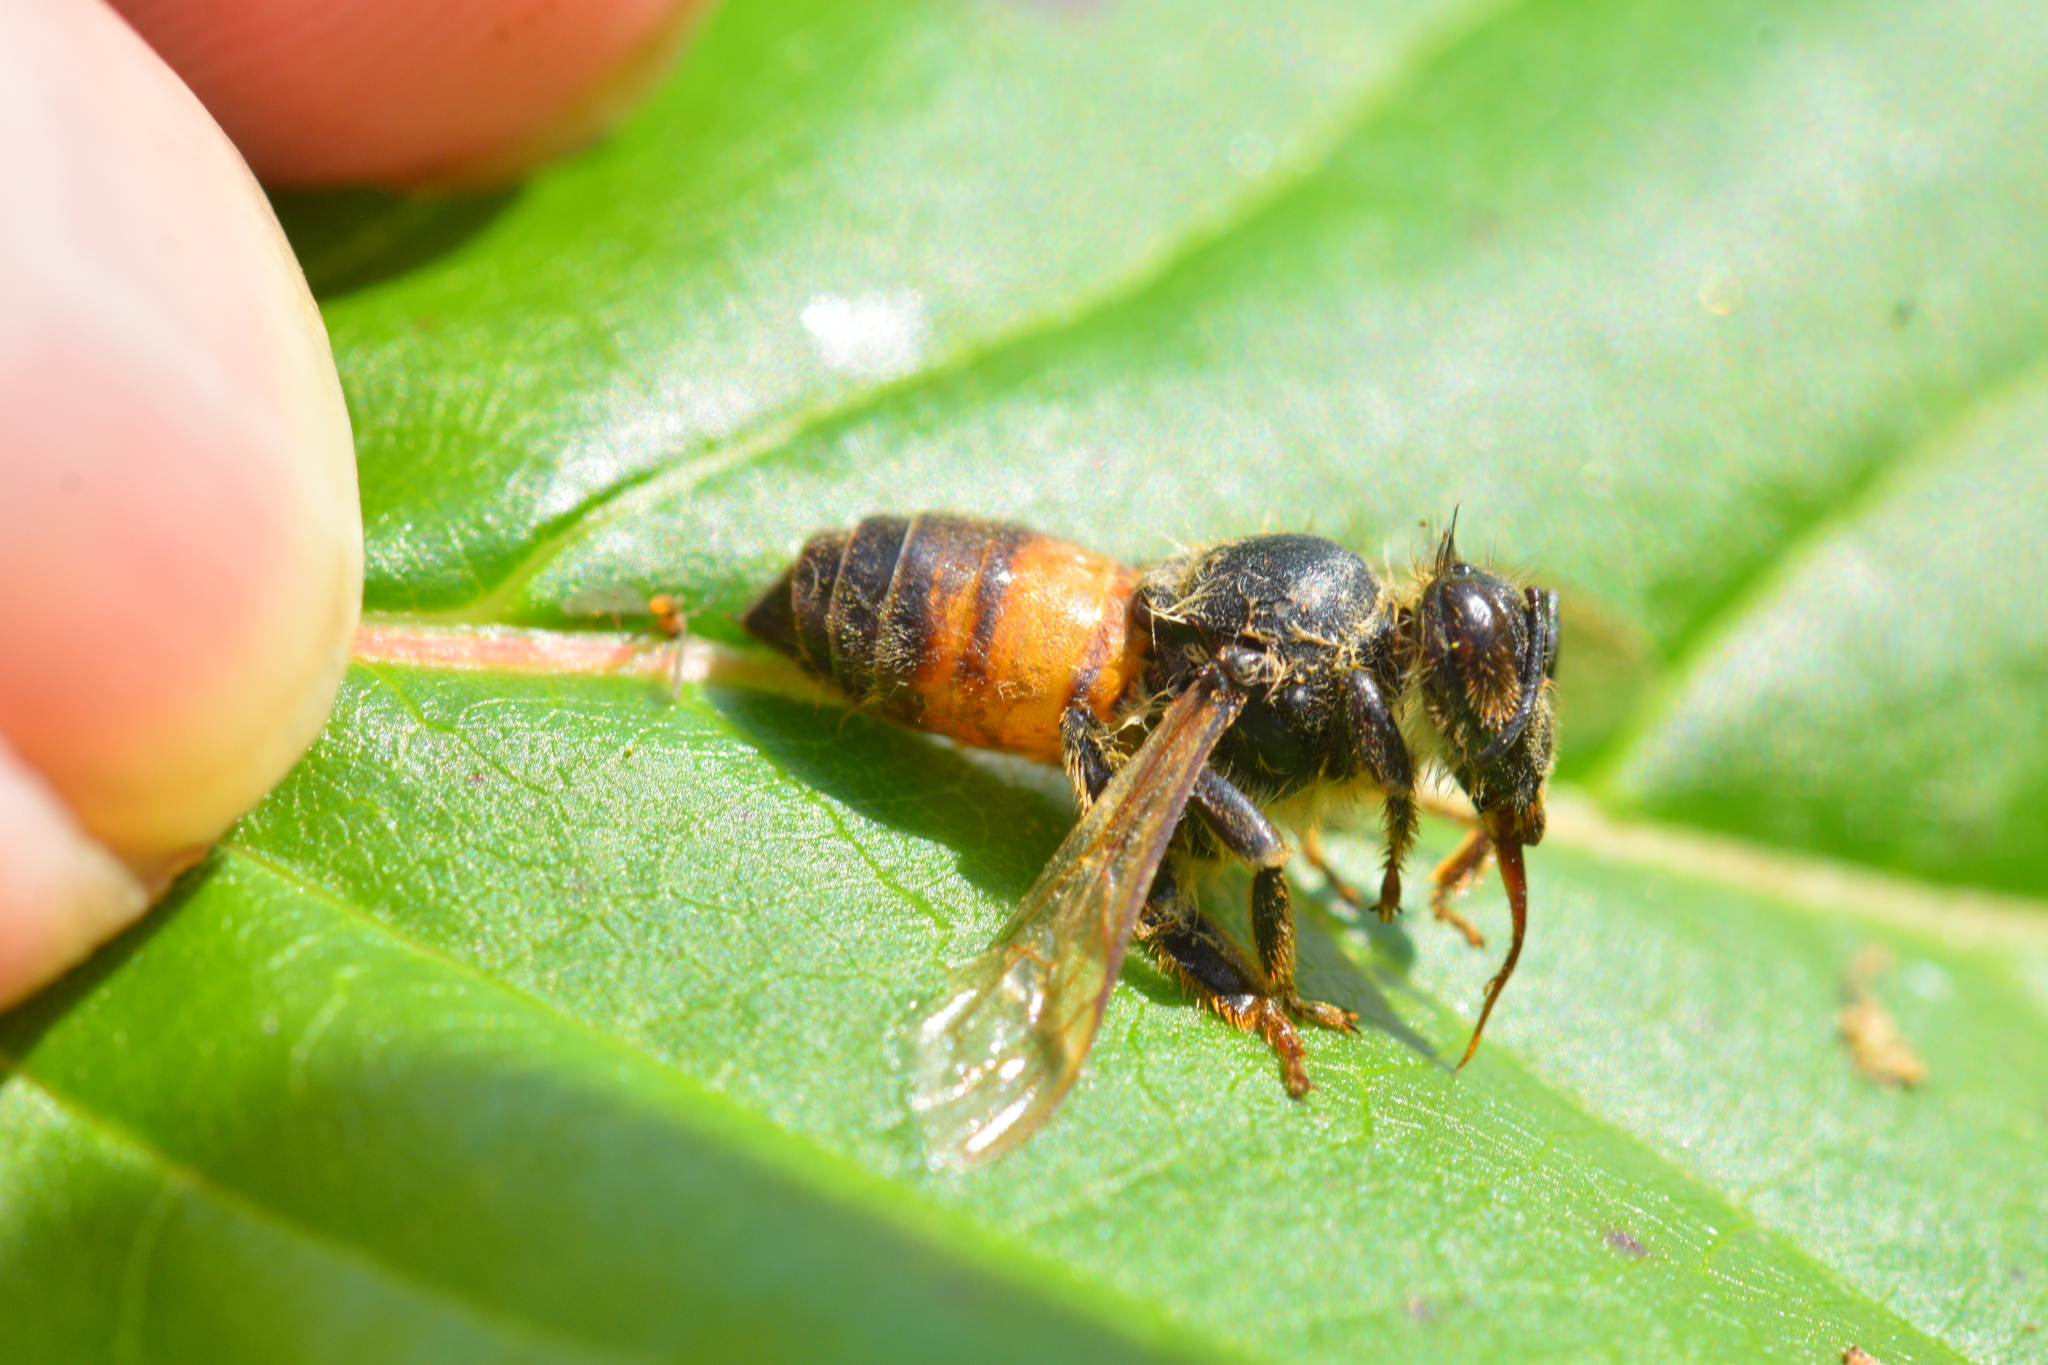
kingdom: Animalia
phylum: Arthropoda
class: Insecta
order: Hymenoptera
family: Apidae
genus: Apis
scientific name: Apis mellifera
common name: Honey bee
